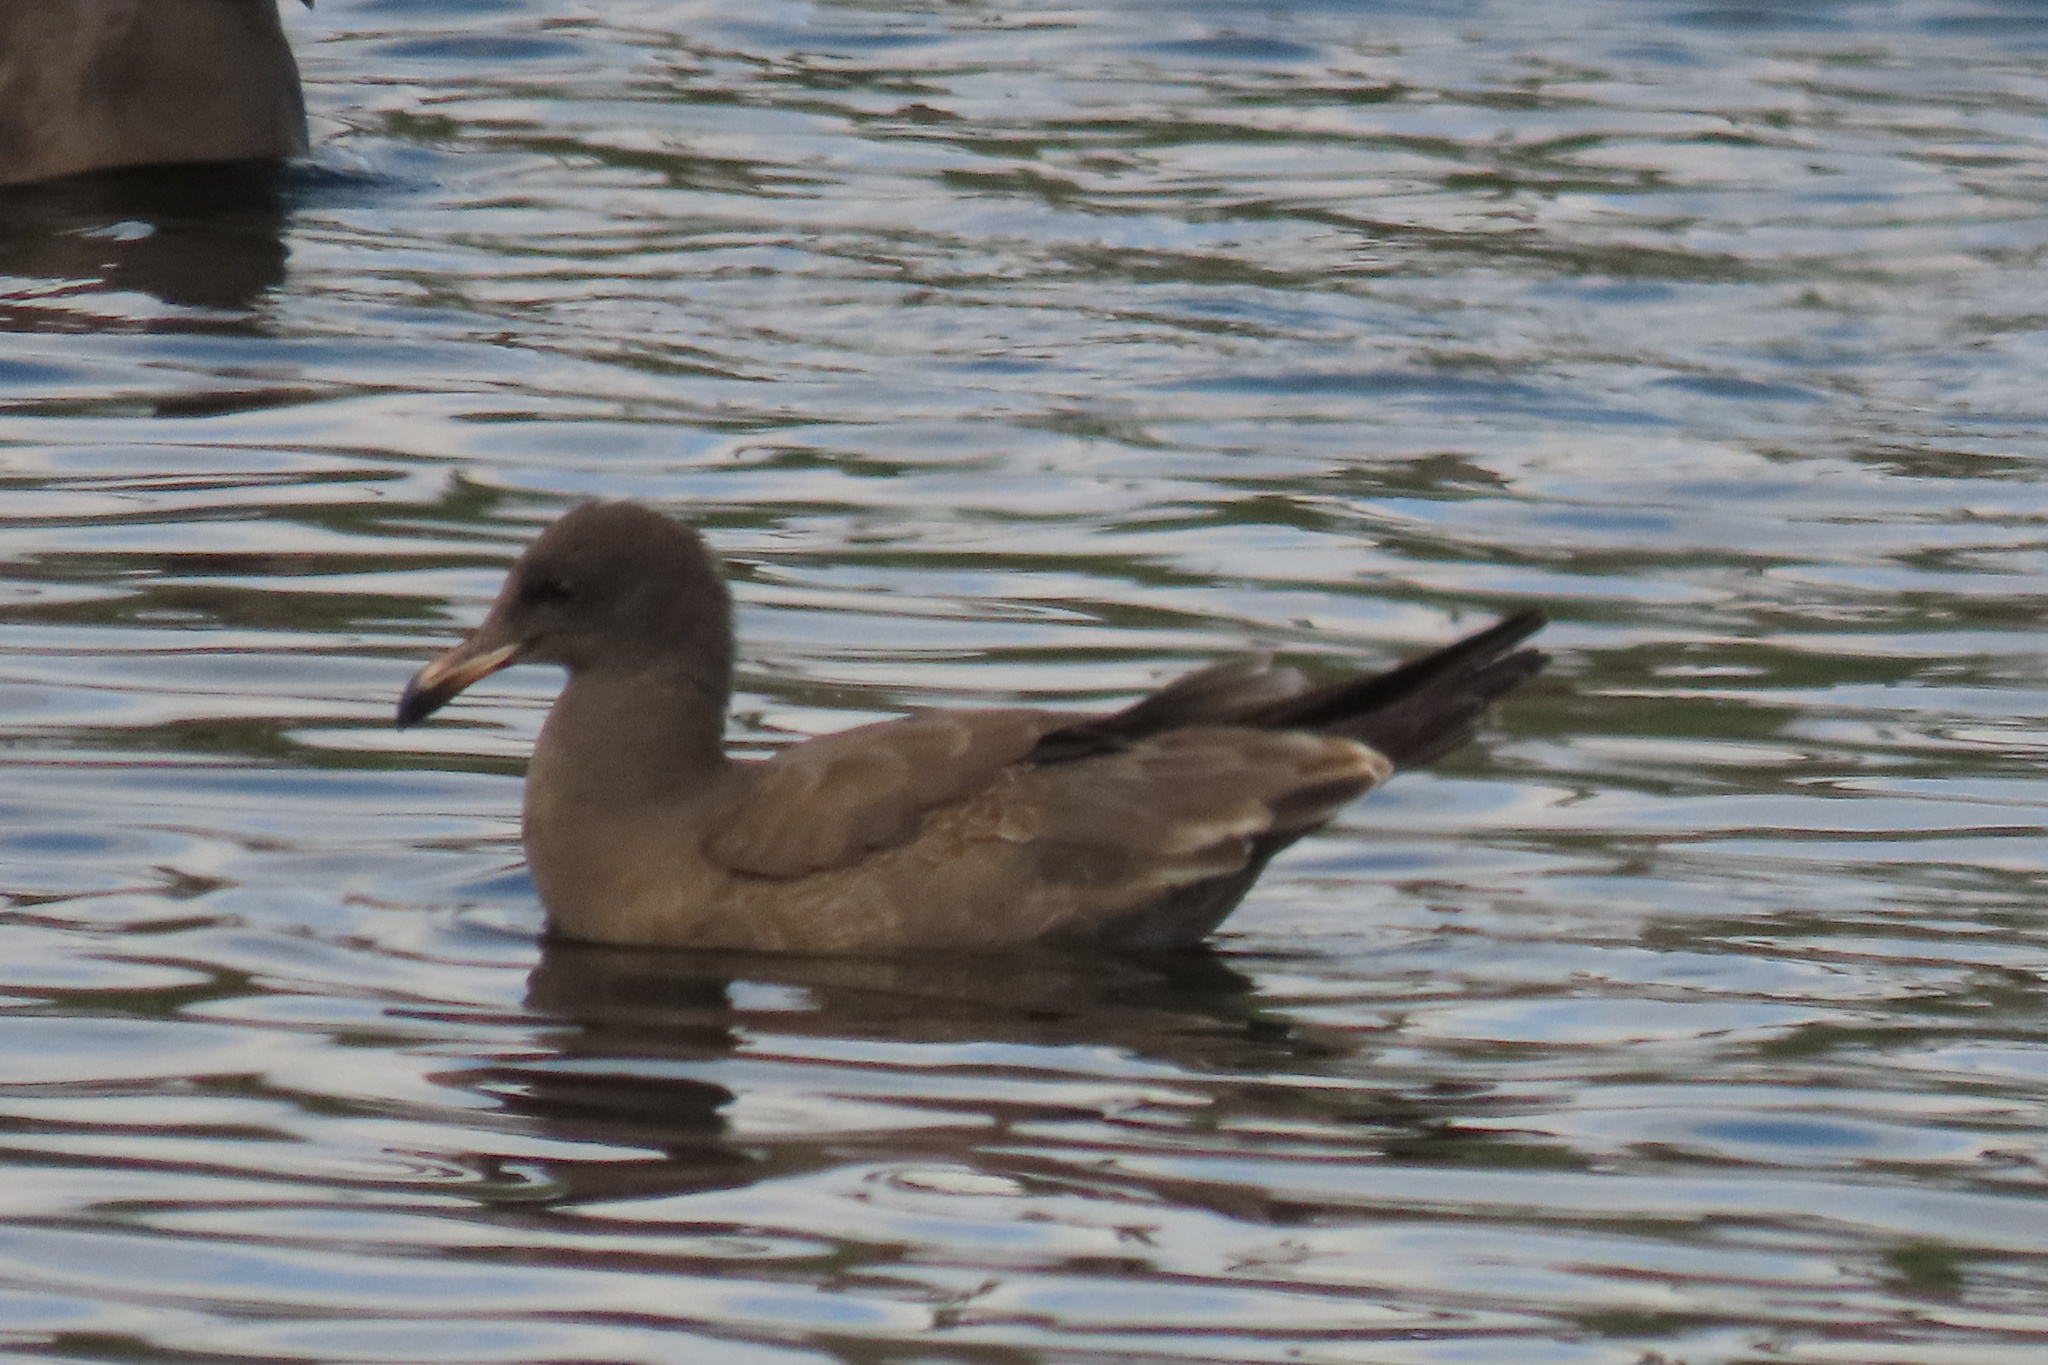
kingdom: Animalia
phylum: Chordata
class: Aves
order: Charadriiformes
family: Laridae
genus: Larus
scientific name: Larus heermanni
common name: Heermann's gull
